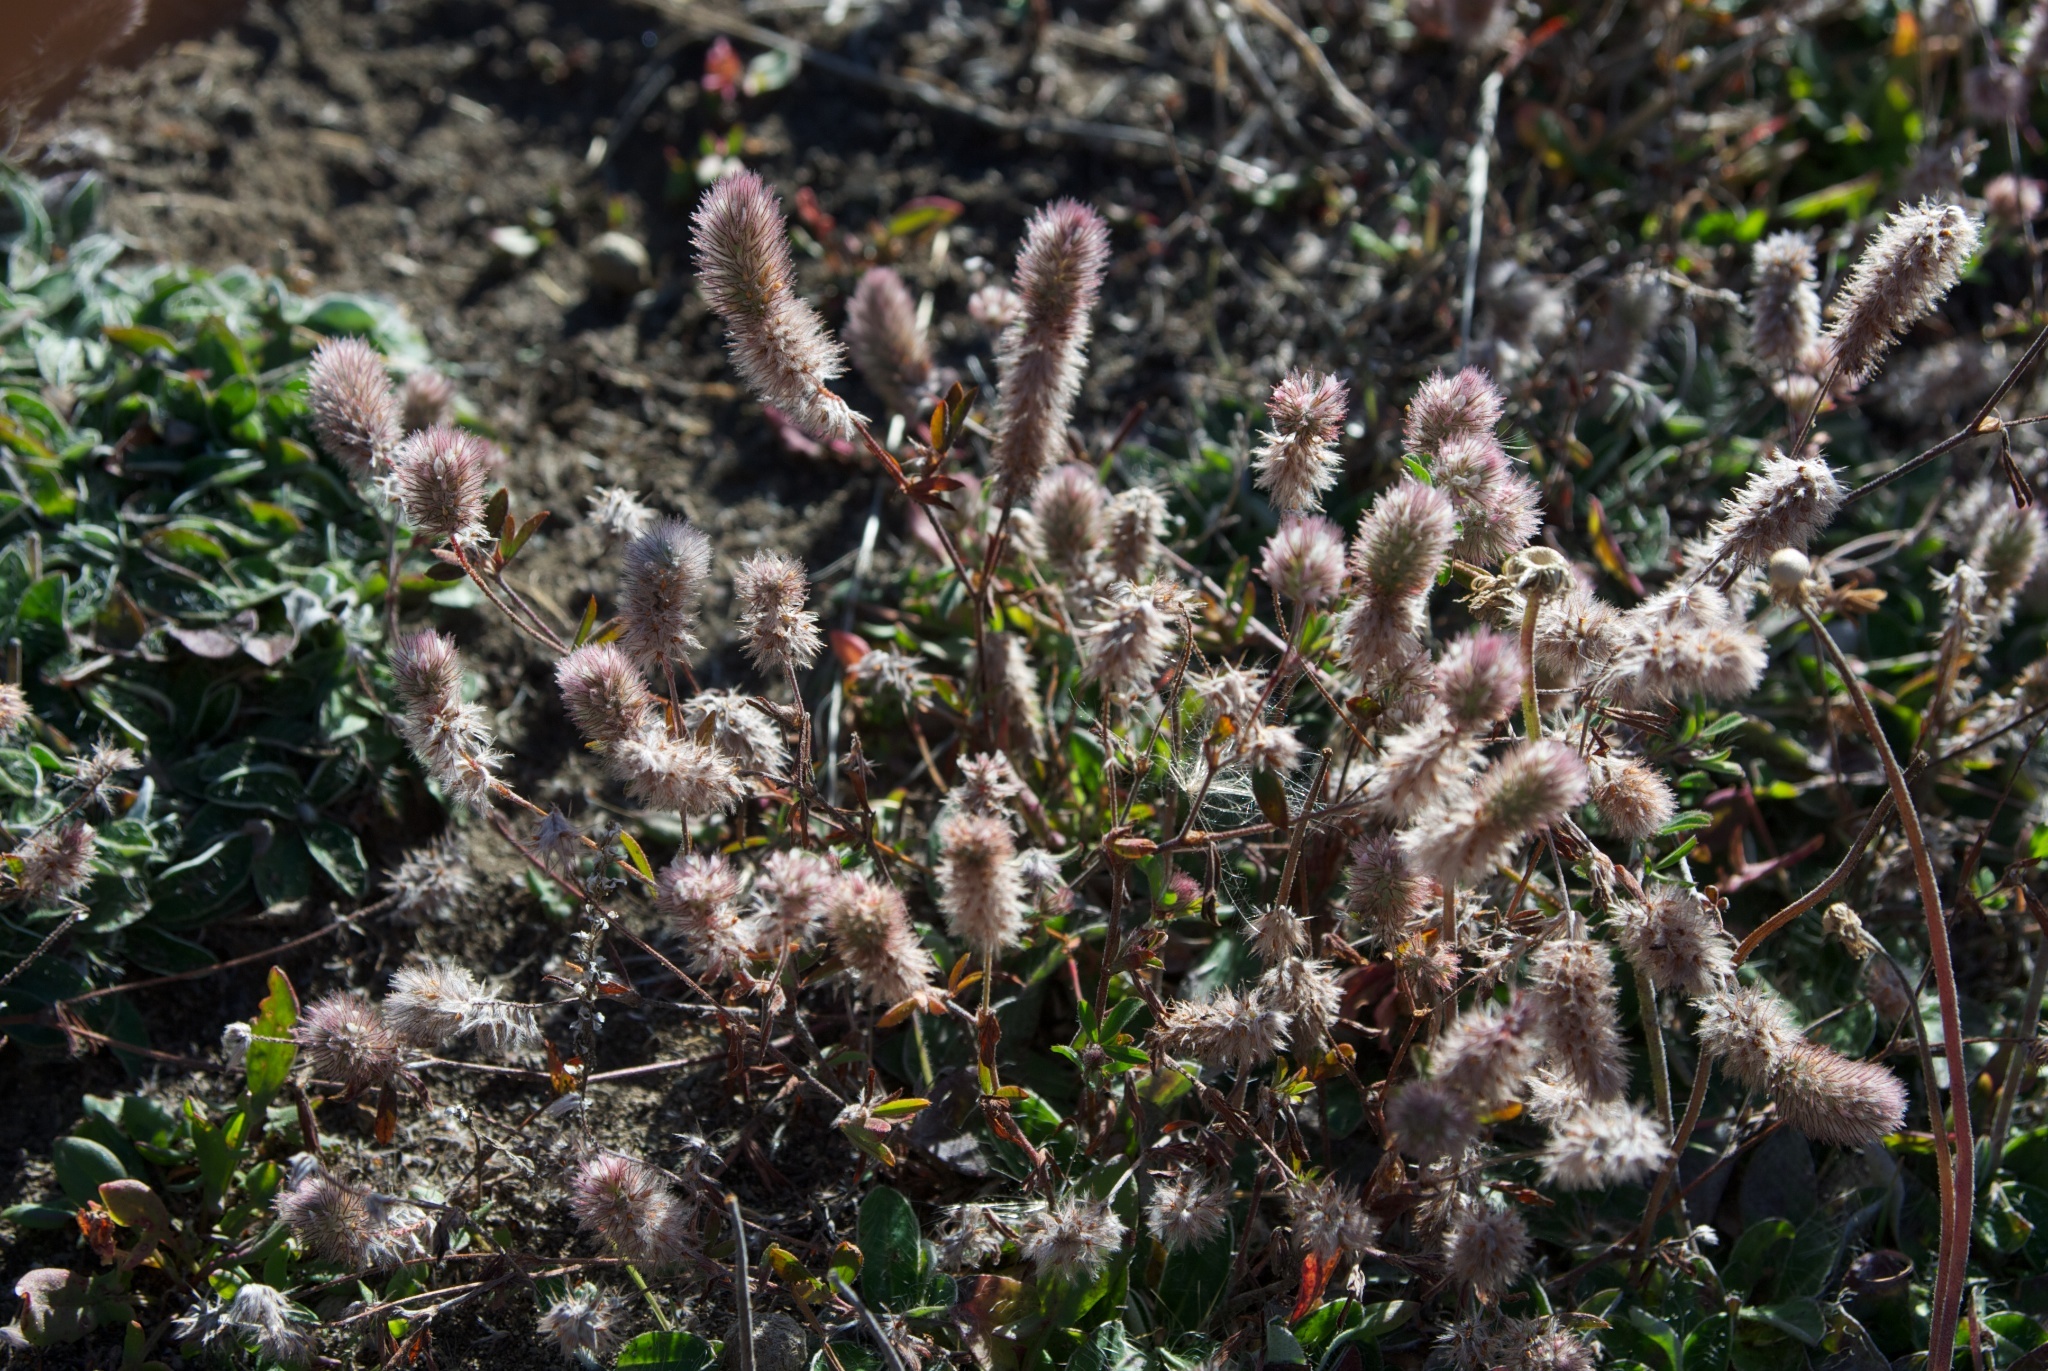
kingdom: Plantae
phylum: Tracheophyta
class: Magnoliopsida
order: Fabales
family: Fabaceae
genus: Trifolium
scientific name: Trifolium arvense
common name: Hare's-foot clover
